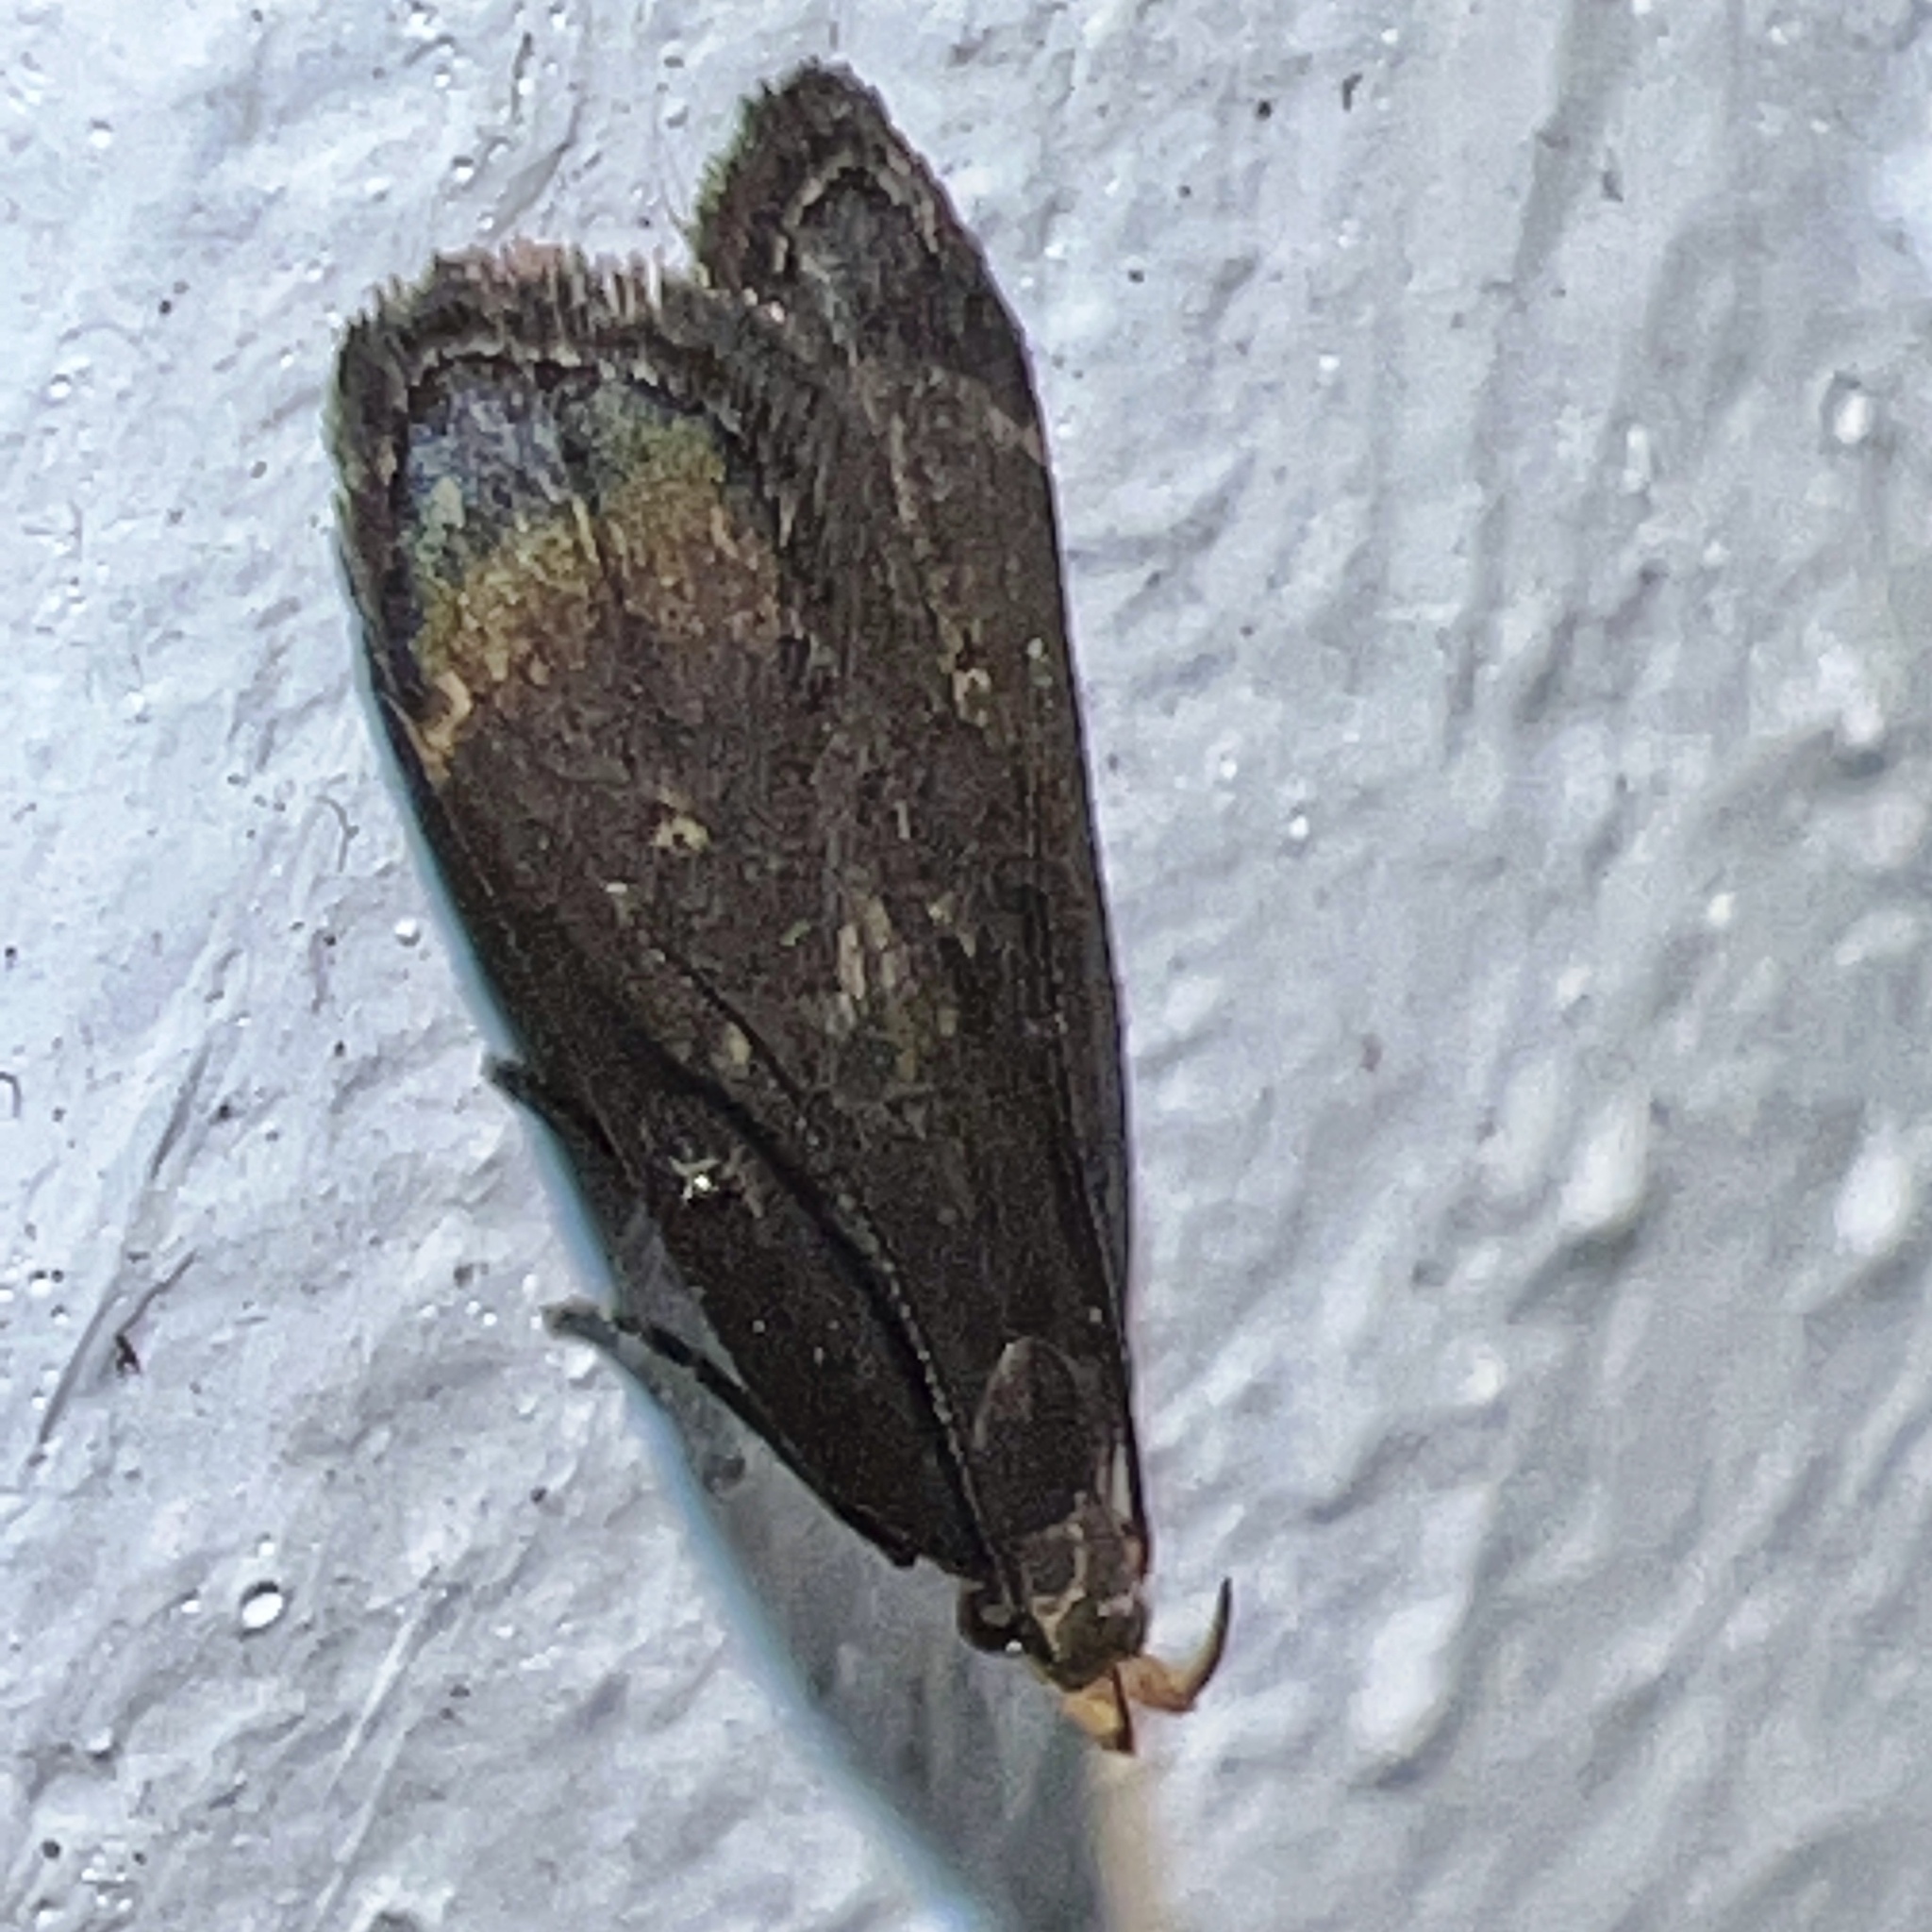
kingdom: Animalia
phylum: Arthropoda
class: Insecta
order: Lepidoptera
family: Gelechiidae
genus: Dichomeris
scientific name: Dichomeris juncidella
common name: Orange-dotted dichomeris moth
